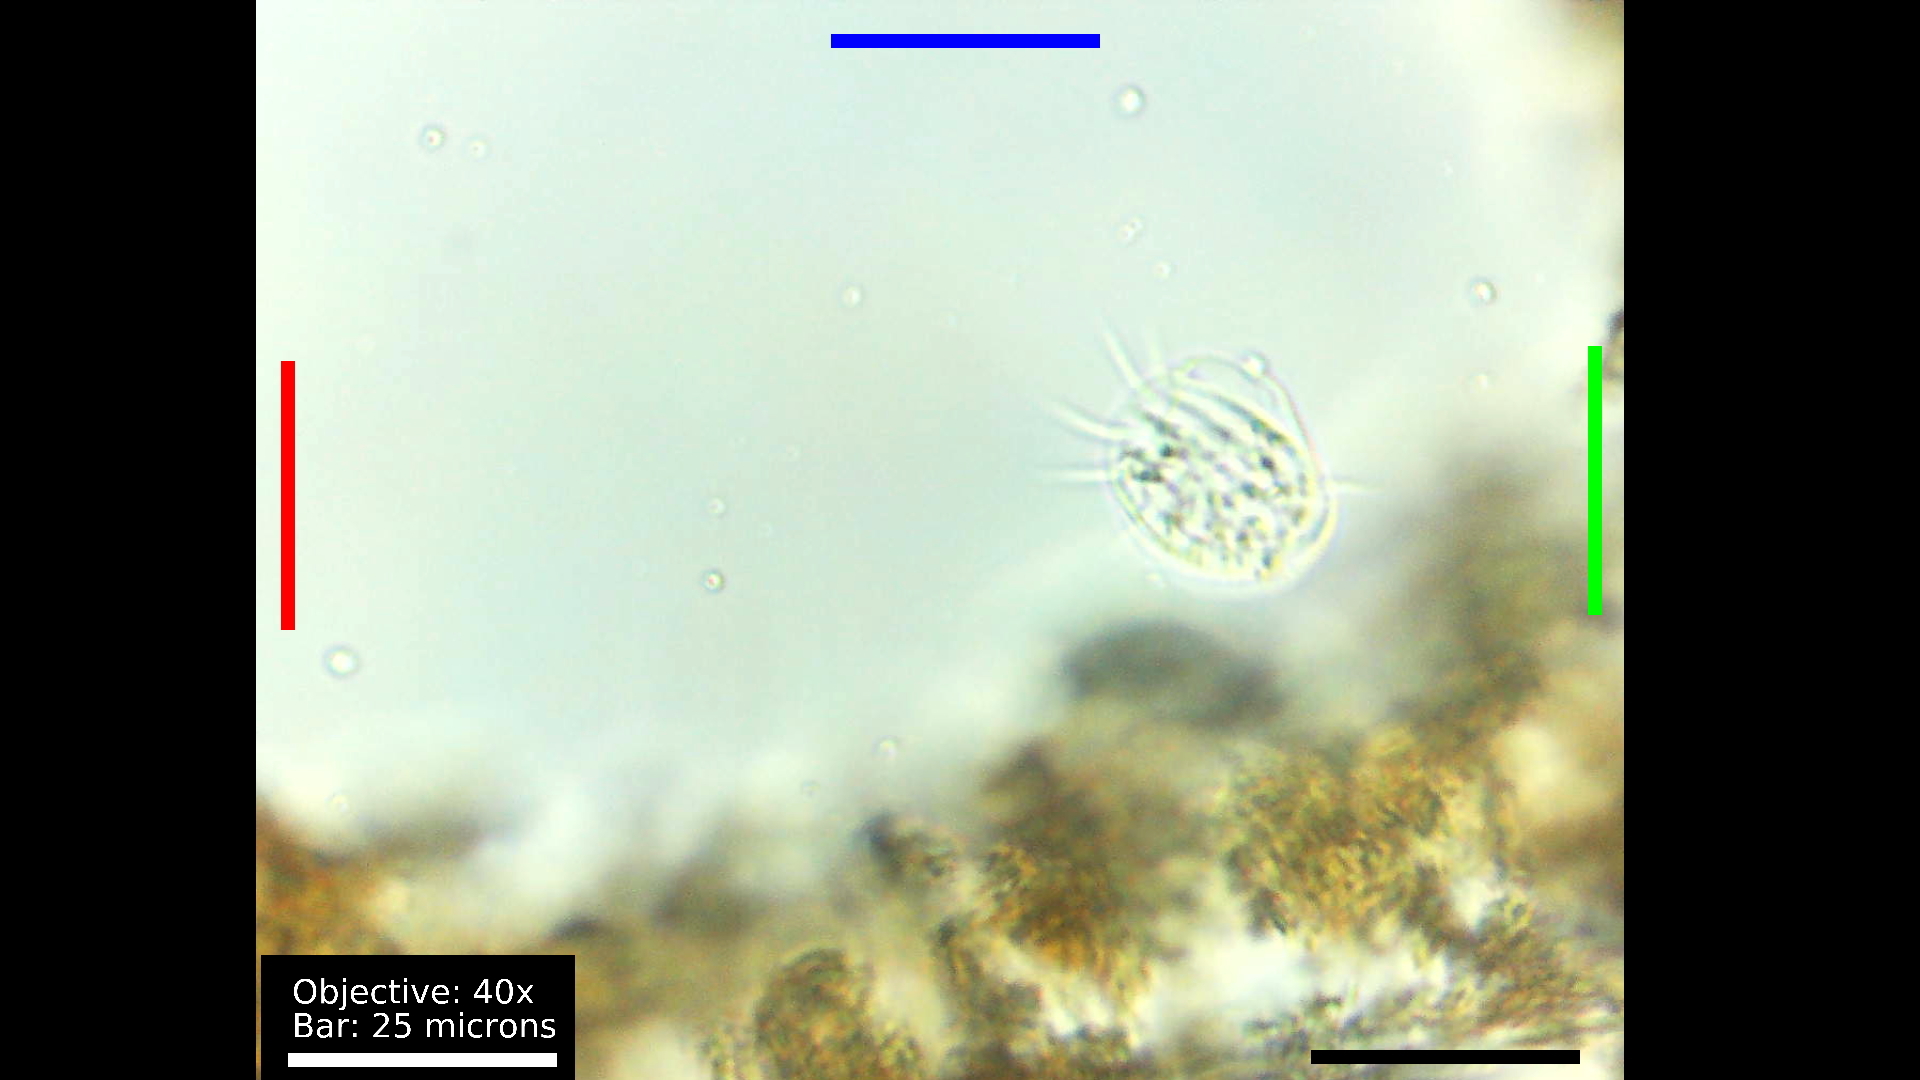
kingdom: Chromista
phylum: Ciliophora
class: Hypotrichea
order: Euplotida
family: Aspidiscidae
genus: Aspidisca
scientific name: Aspidisca cicada
